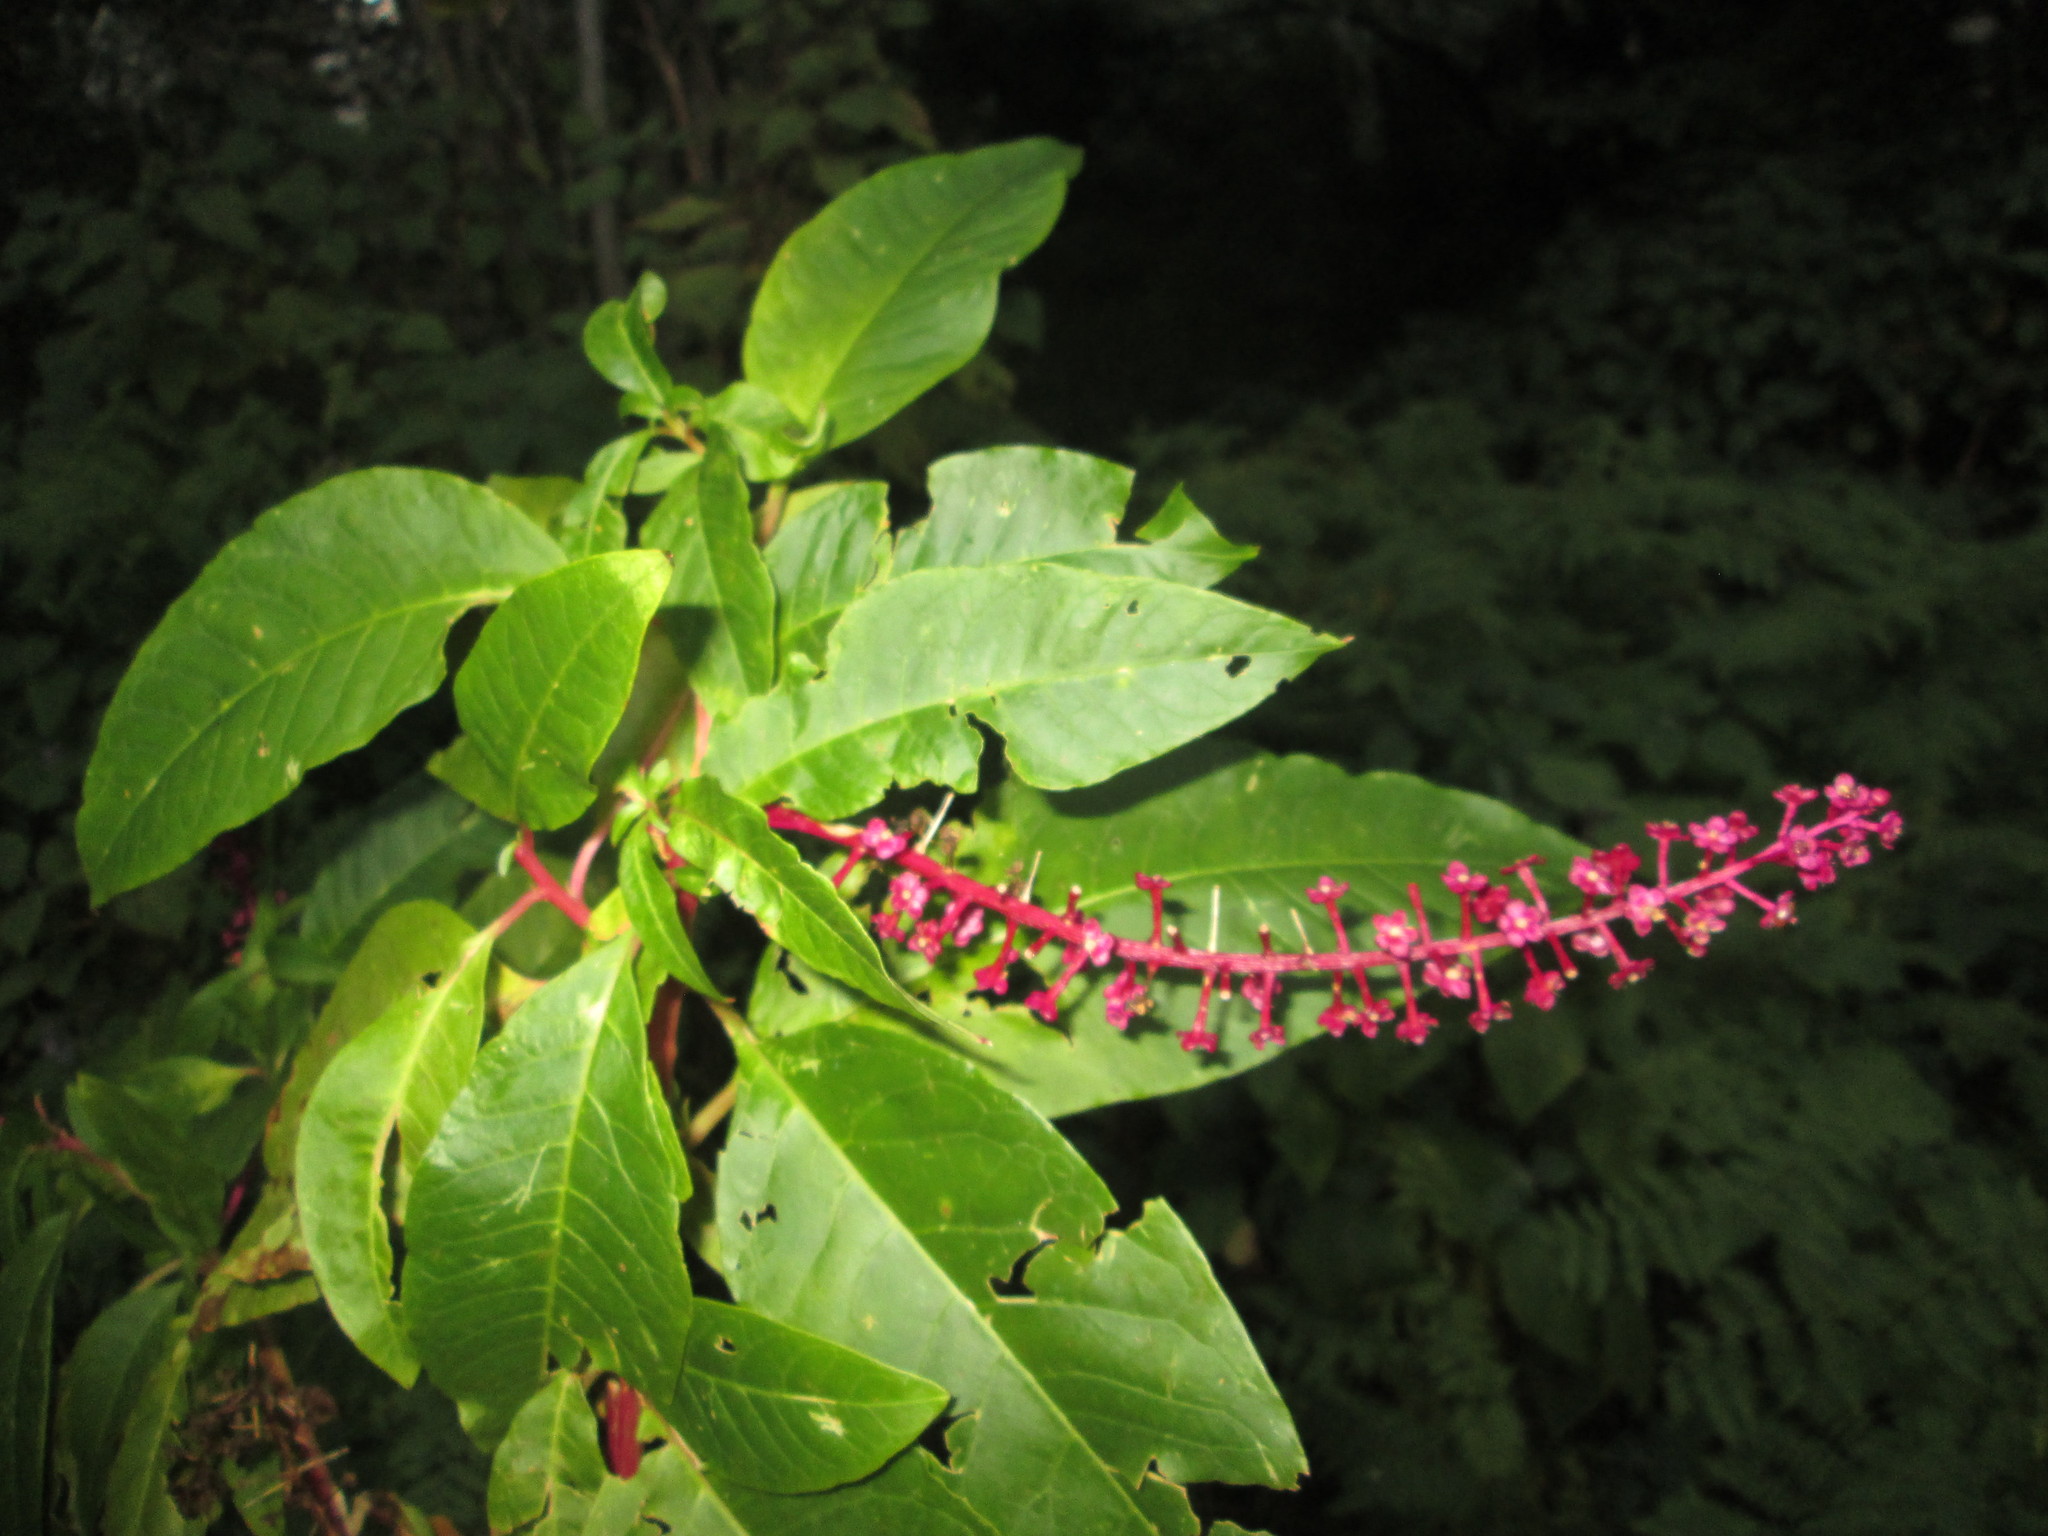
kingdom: Plantae
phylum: Tracheophyta
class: Magnoliopsida
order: Caryophyllales
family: Phytolaccaceae
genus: Phytolacca
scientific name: Phytolacca americana
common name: American pokeweed
